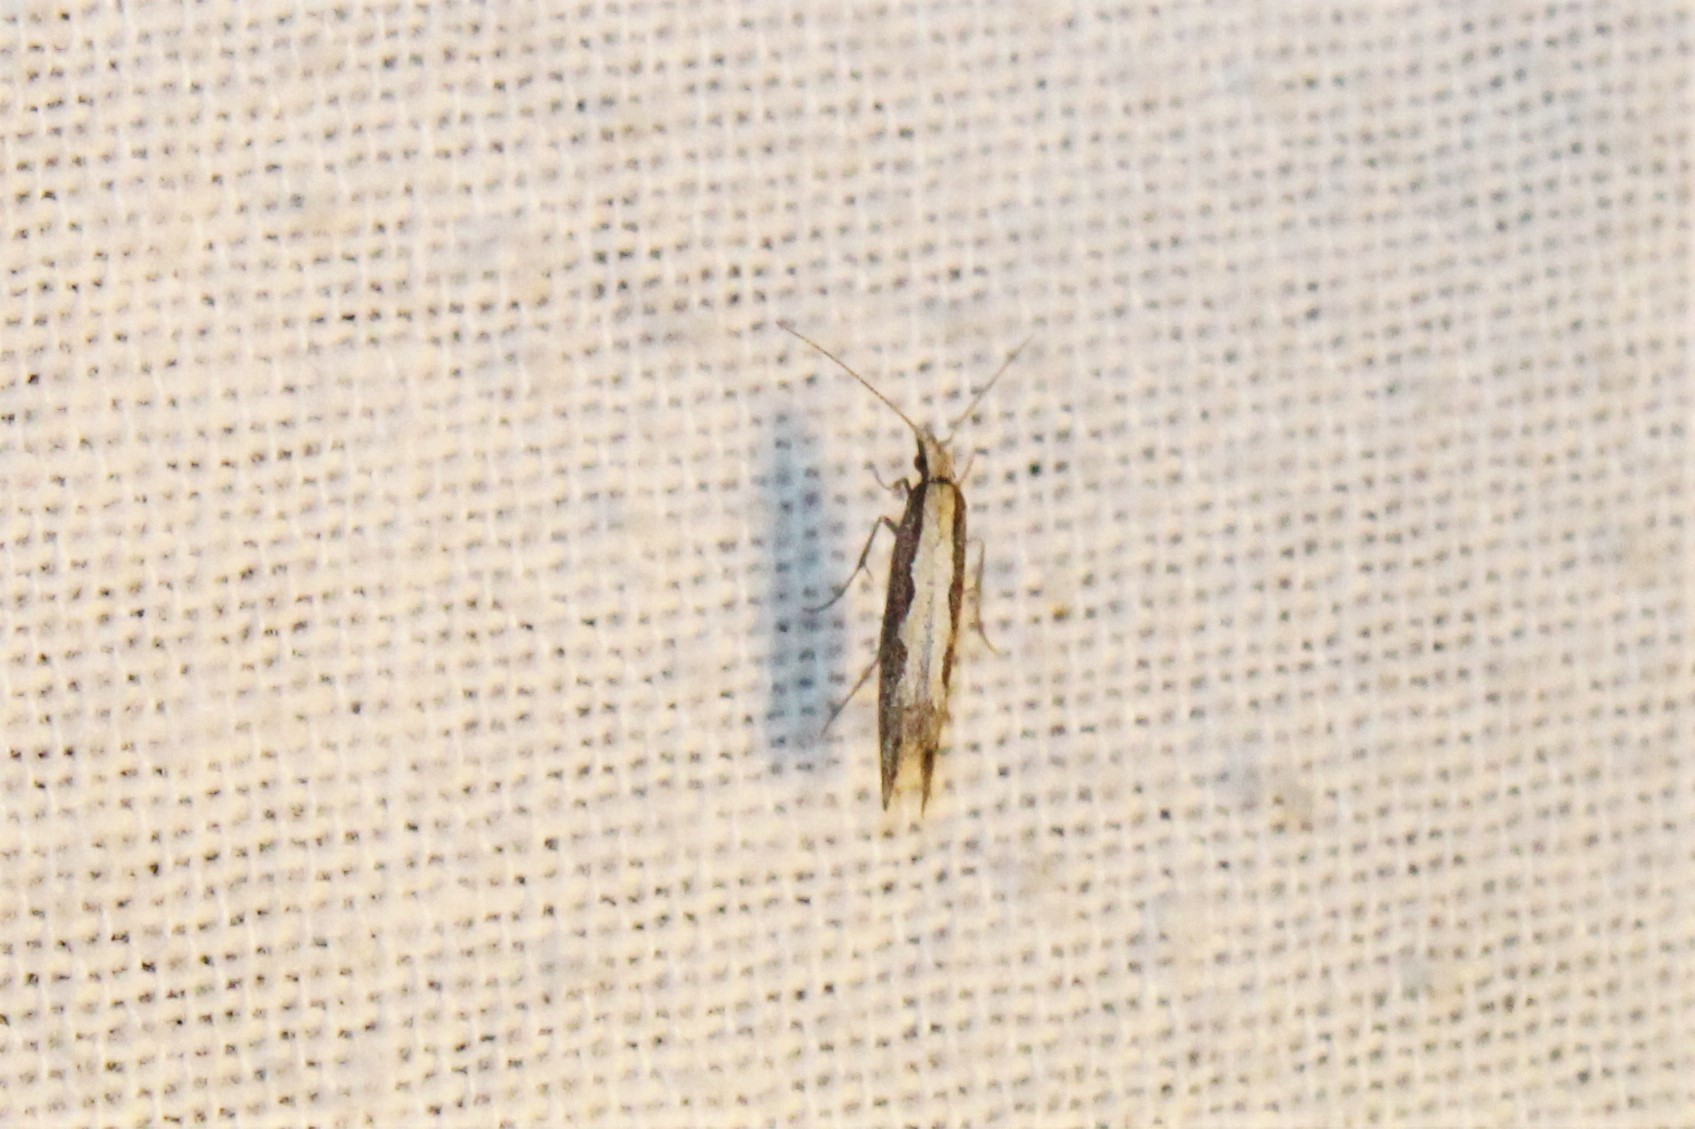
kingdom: Animalia
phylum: Arthropoda
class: Insecta
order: Lepidoptera
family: Plutellidae
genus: Plutella
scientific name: Plutella xylostella
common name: Diamond-back moth
